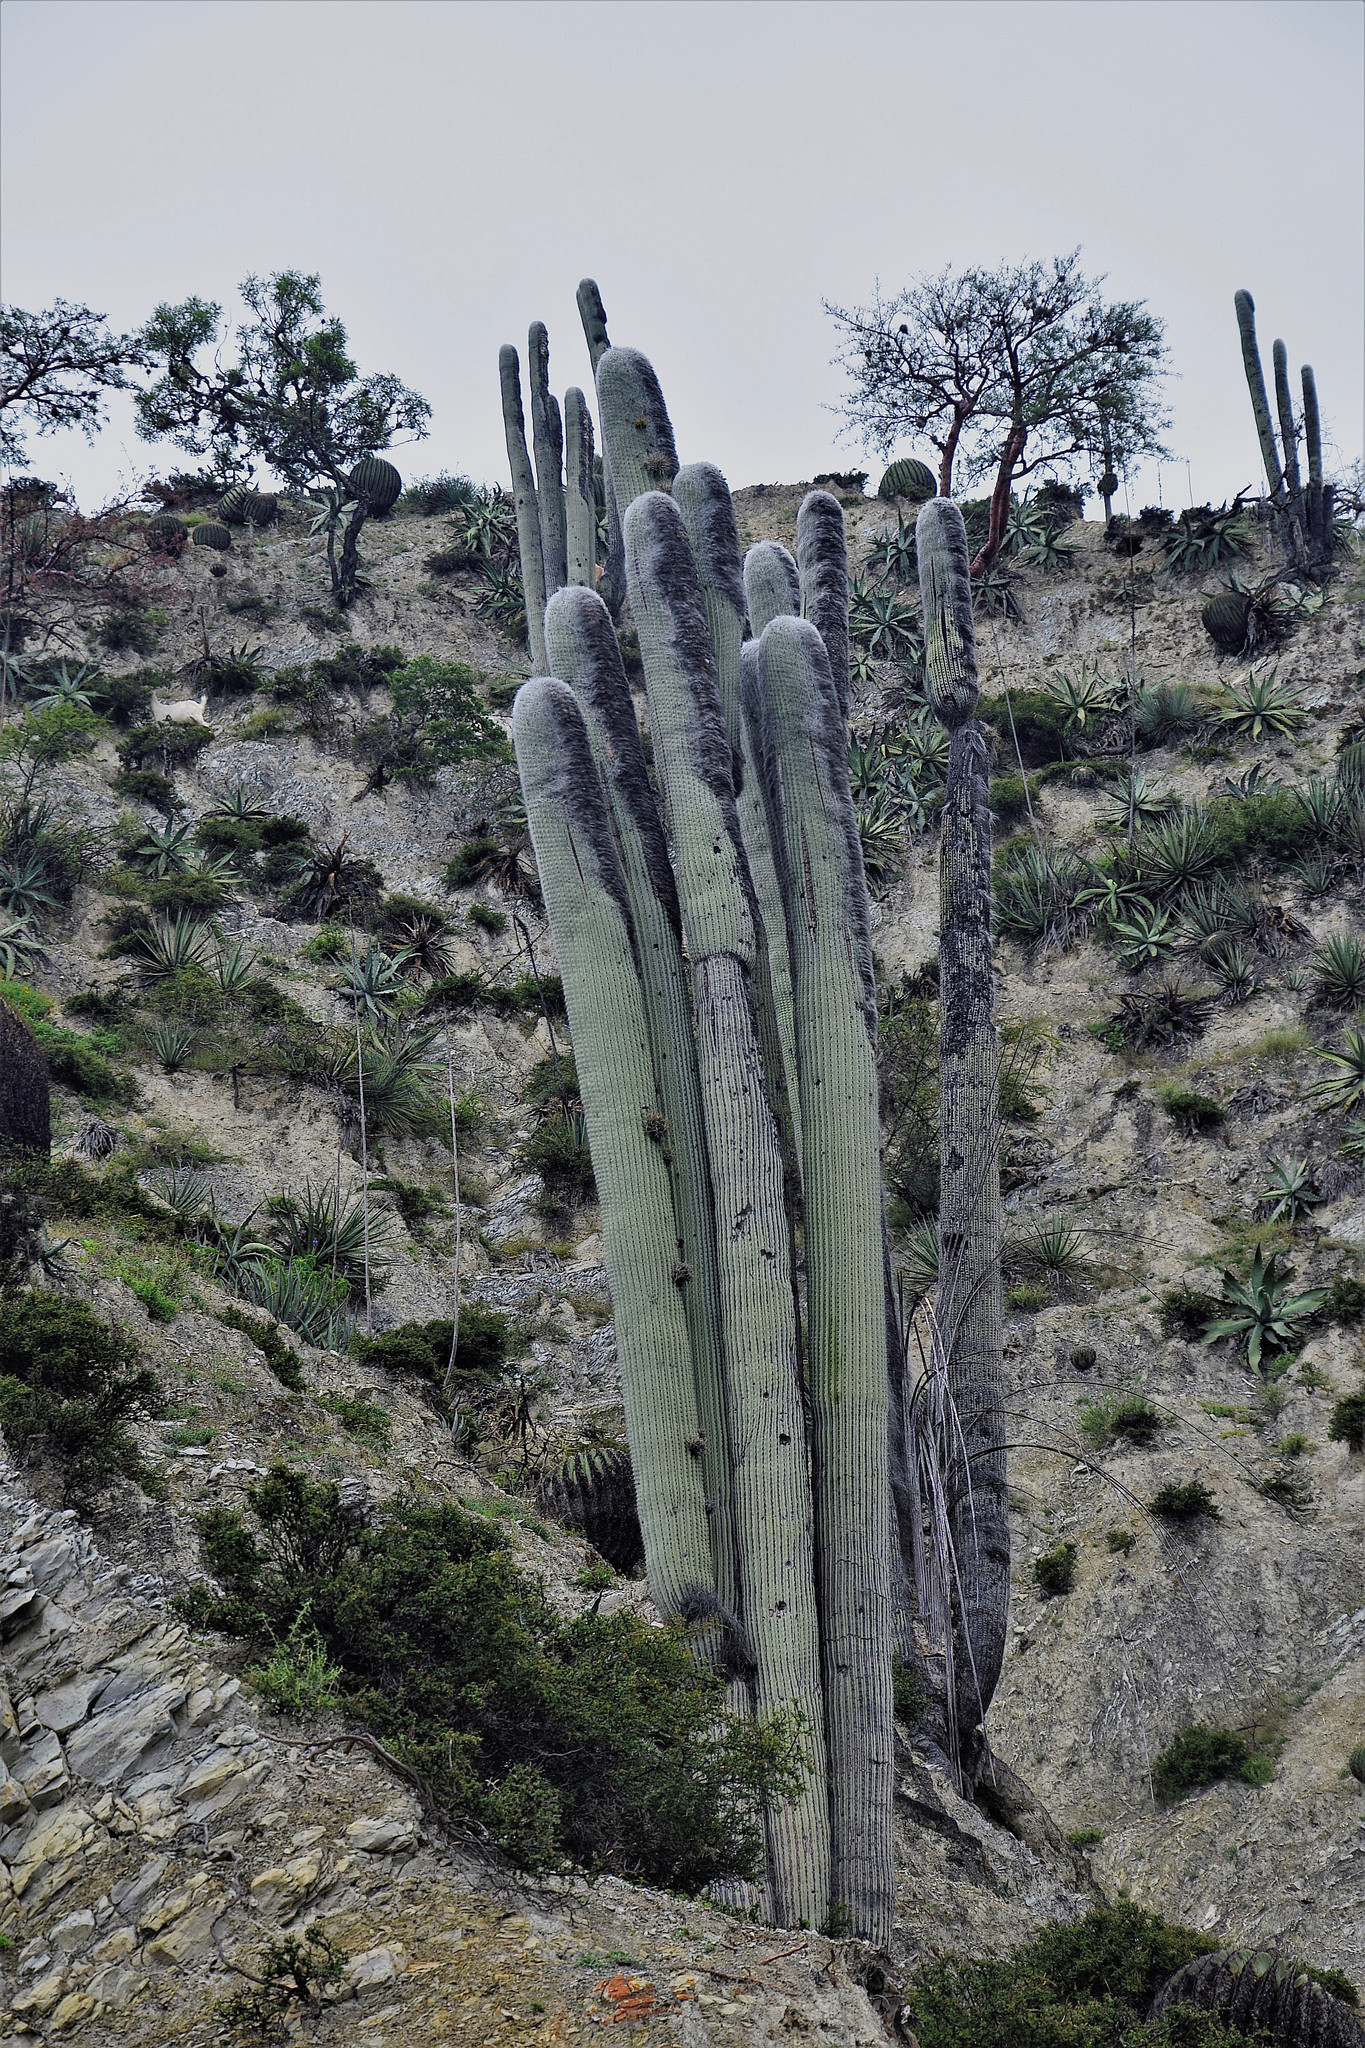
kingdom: Plantae
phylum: Tracheophyta
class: Magnoliopsida
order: Caryophyllales
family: Cactaceae
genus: Cephalocereus
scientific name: Cephalocereus senilis
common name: Old man cactus
